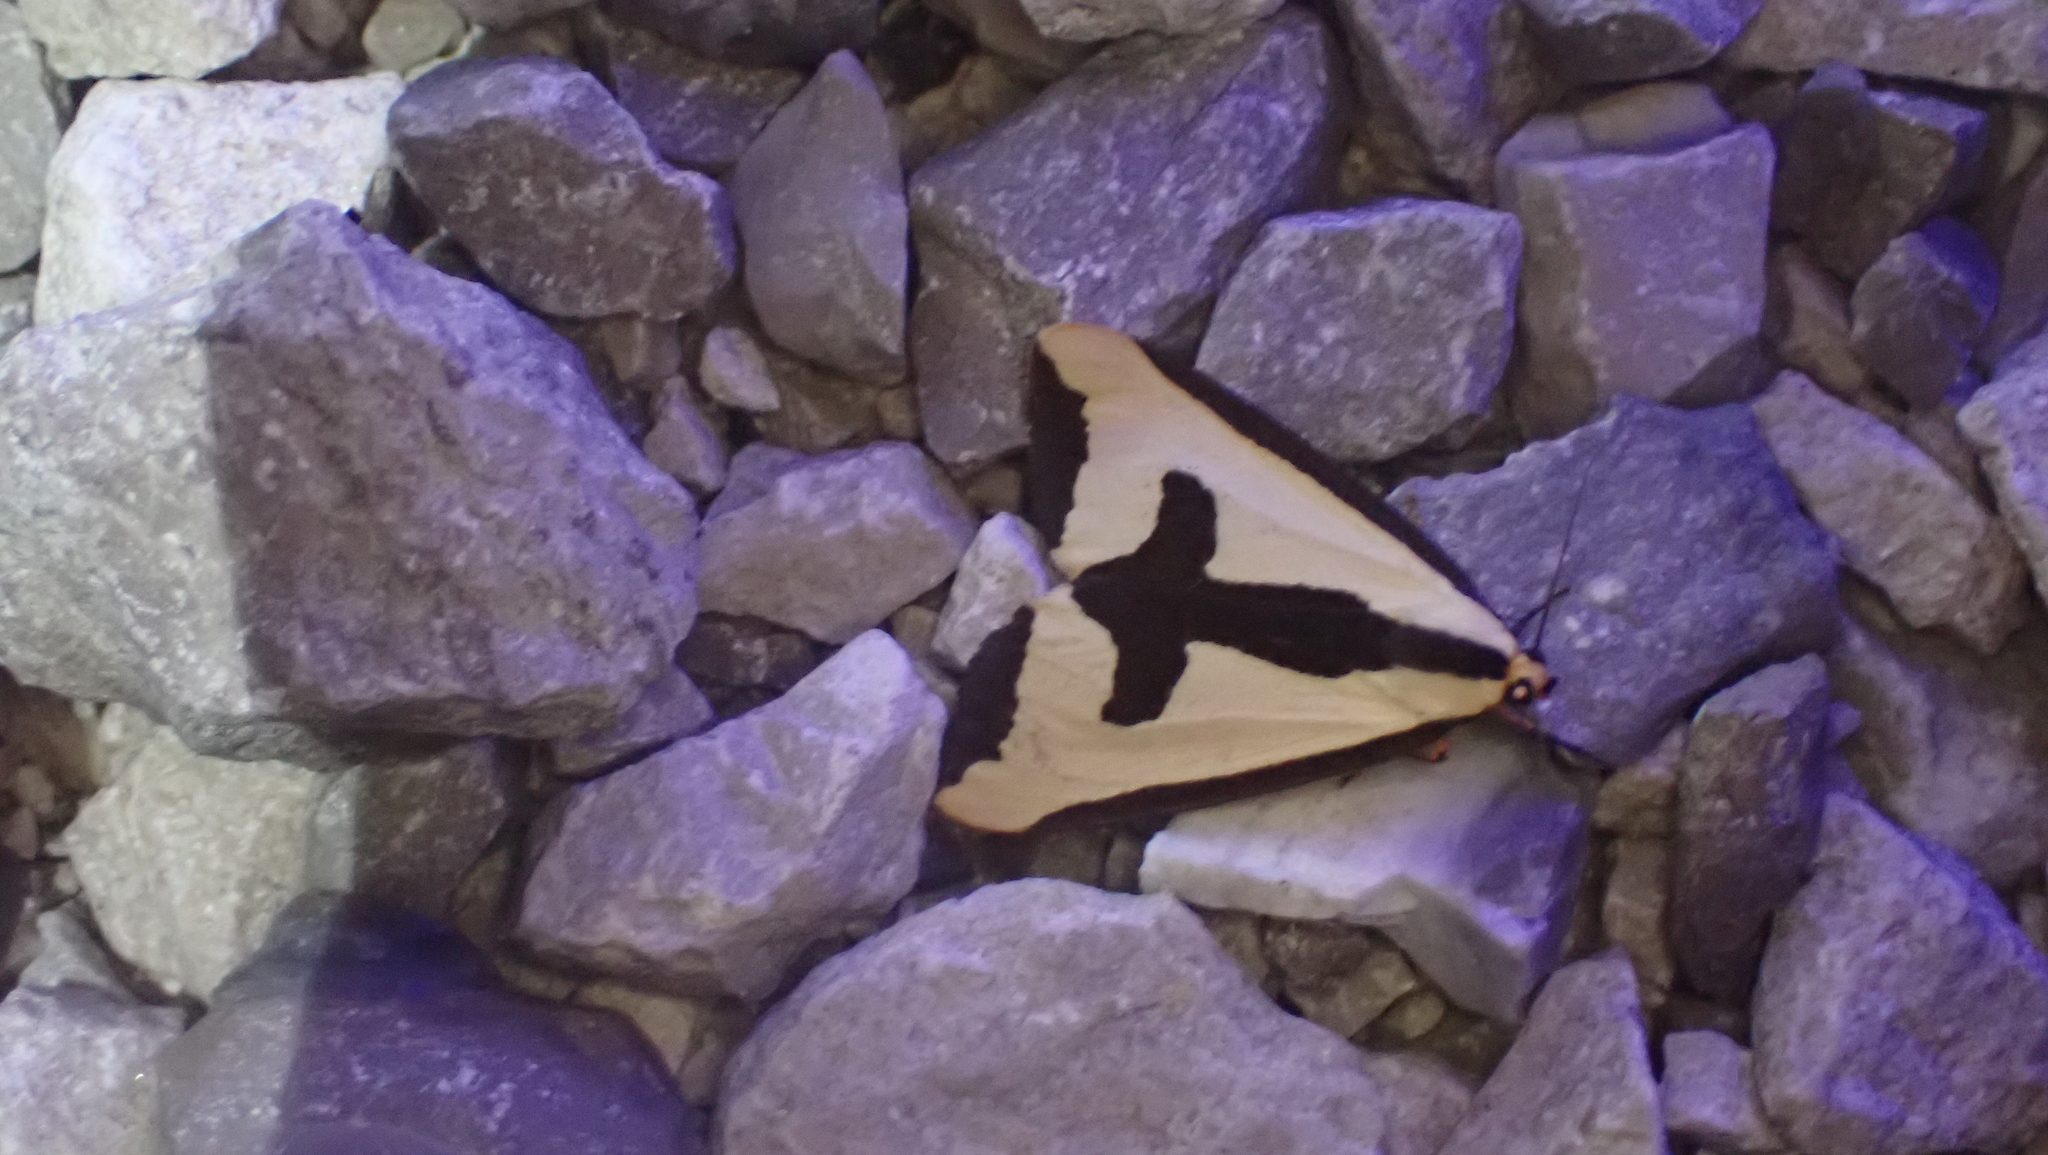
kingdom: Animalia
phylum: Arthropoda
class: Insecta
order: Lepidoptera
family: Erebidae
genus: Haploa
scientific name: Haploa clymene
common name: Clymene moth
